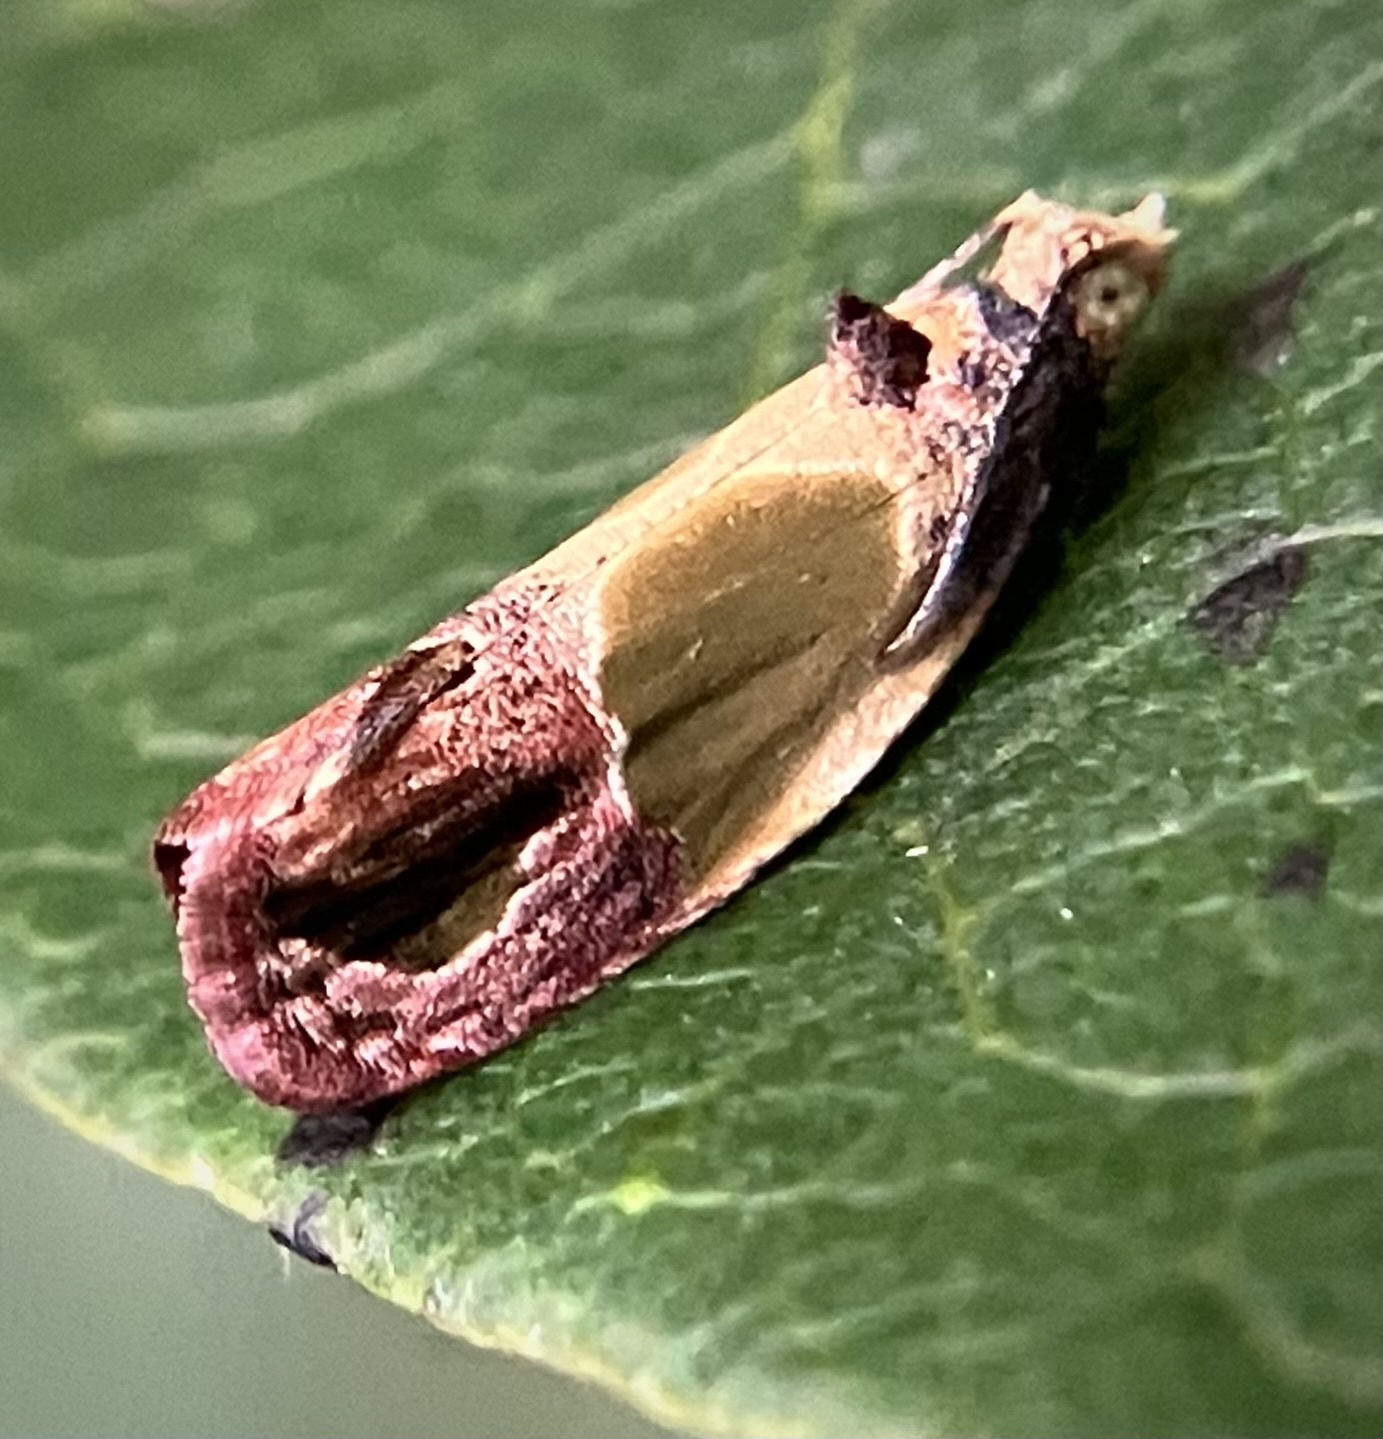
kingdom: Animalia
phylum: Arthropoda
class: Insecta
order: Lepidoptera
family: Tortricidae
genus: Eumarozia
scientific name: Eumarozia malachitana
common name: Sculptured moth
